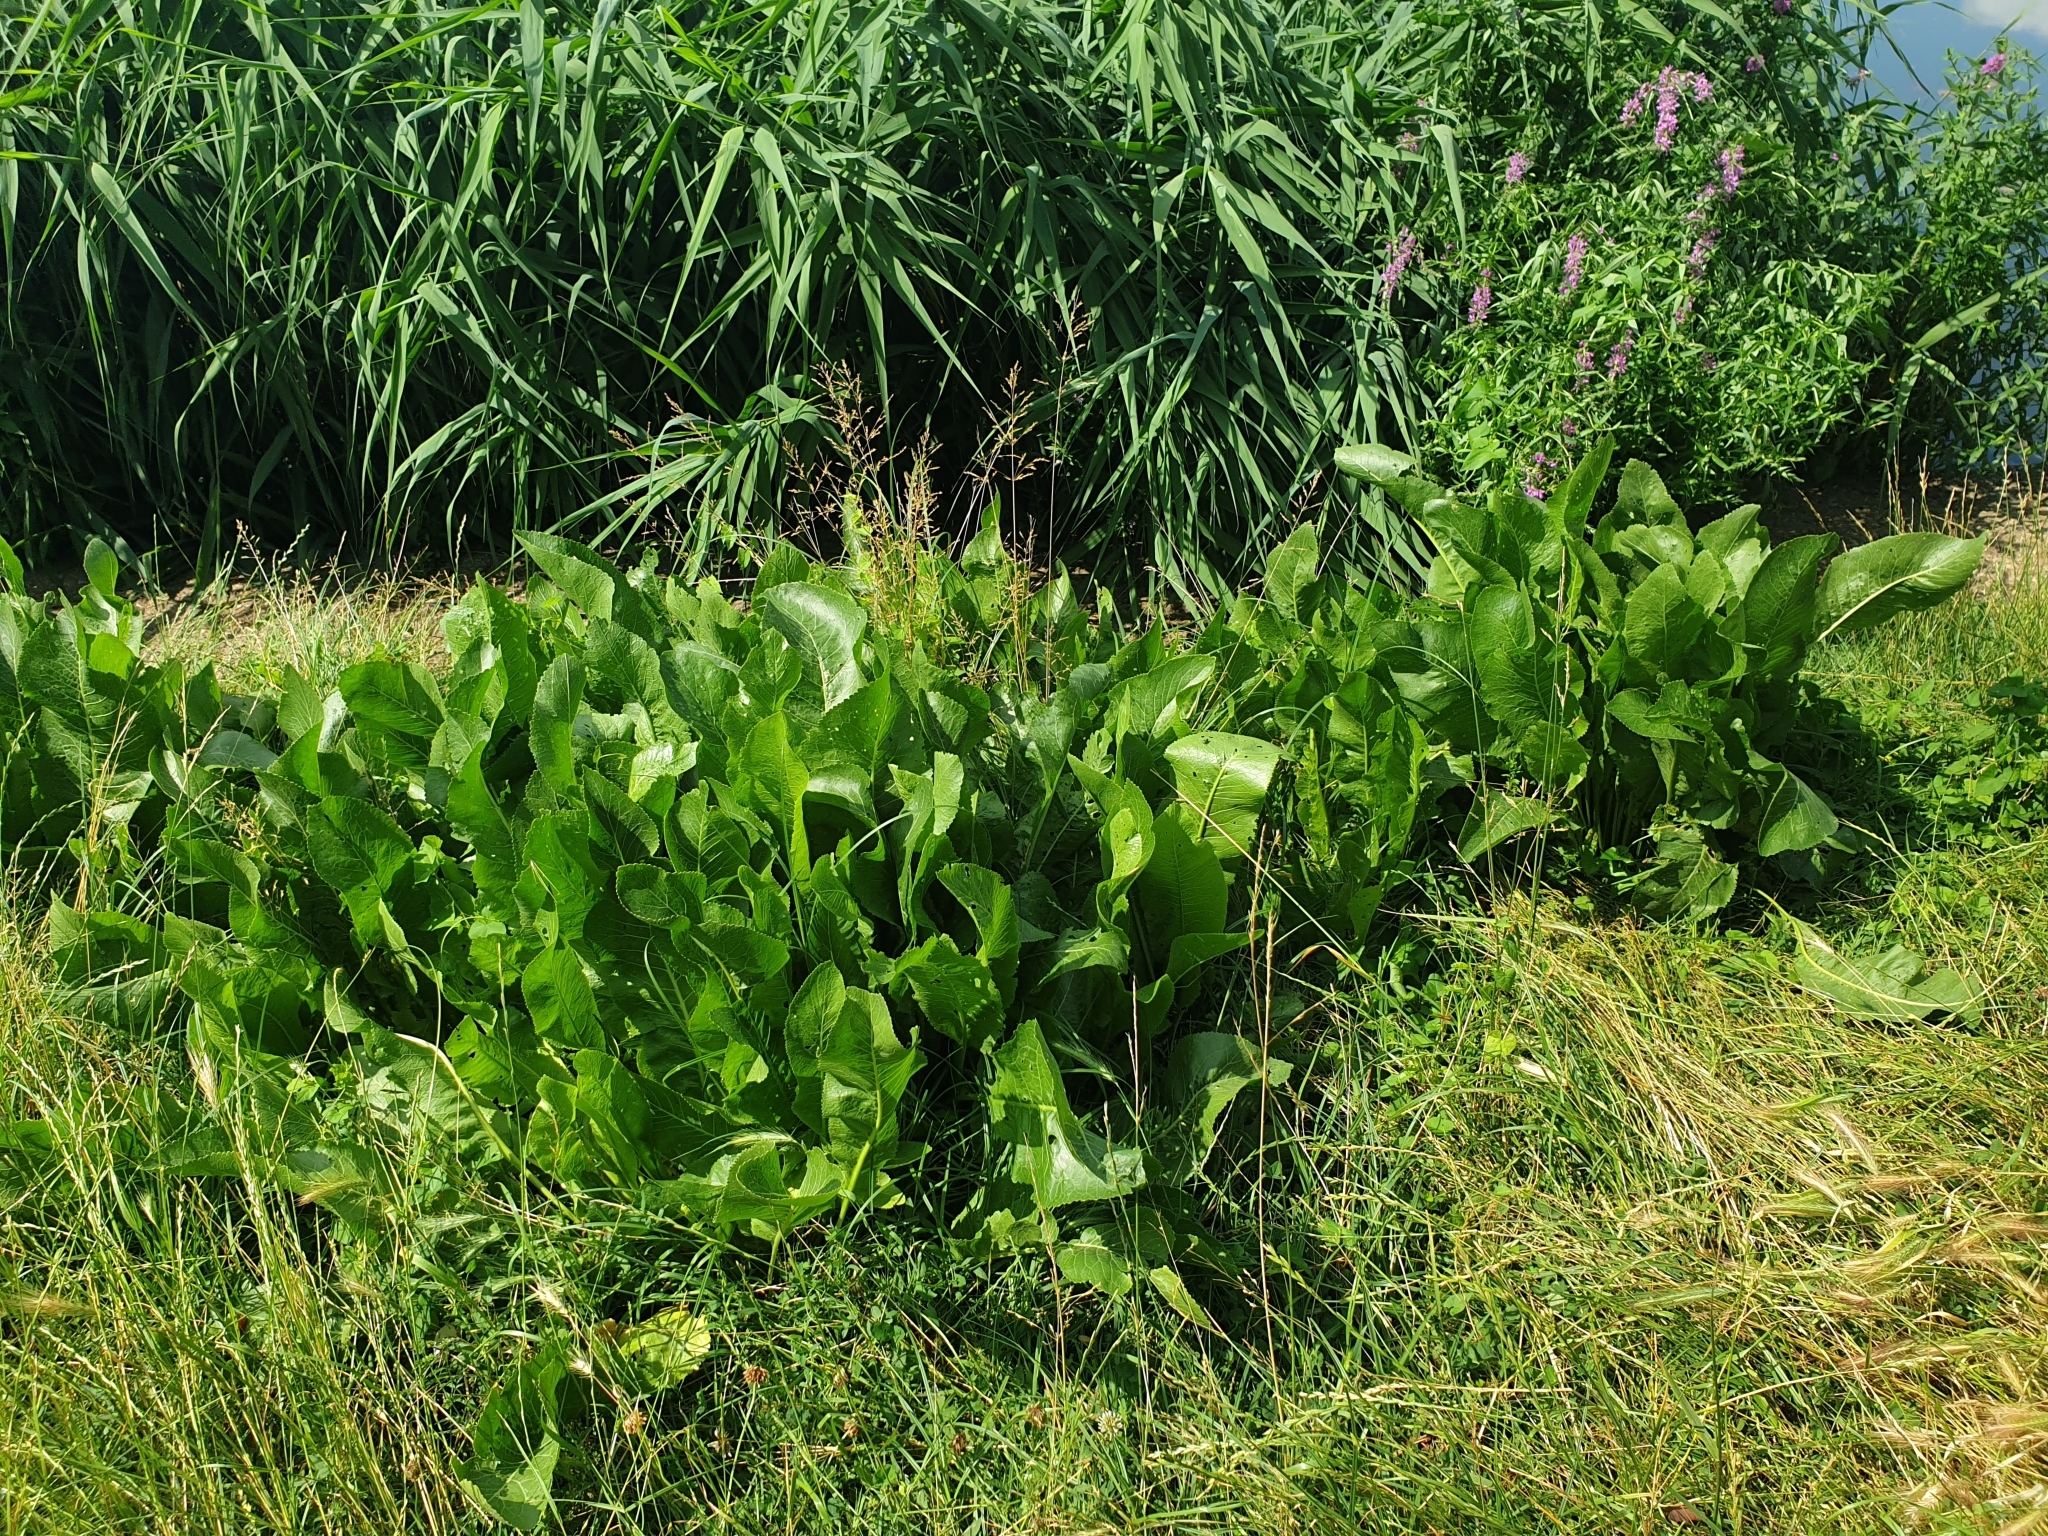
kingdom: Plantae
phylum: Tracheophyta
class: Magnoliopsida
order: Brassicales
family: Brassicaceae
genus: Armoracia
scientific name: Armoracia rusticana
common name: Horseradish
